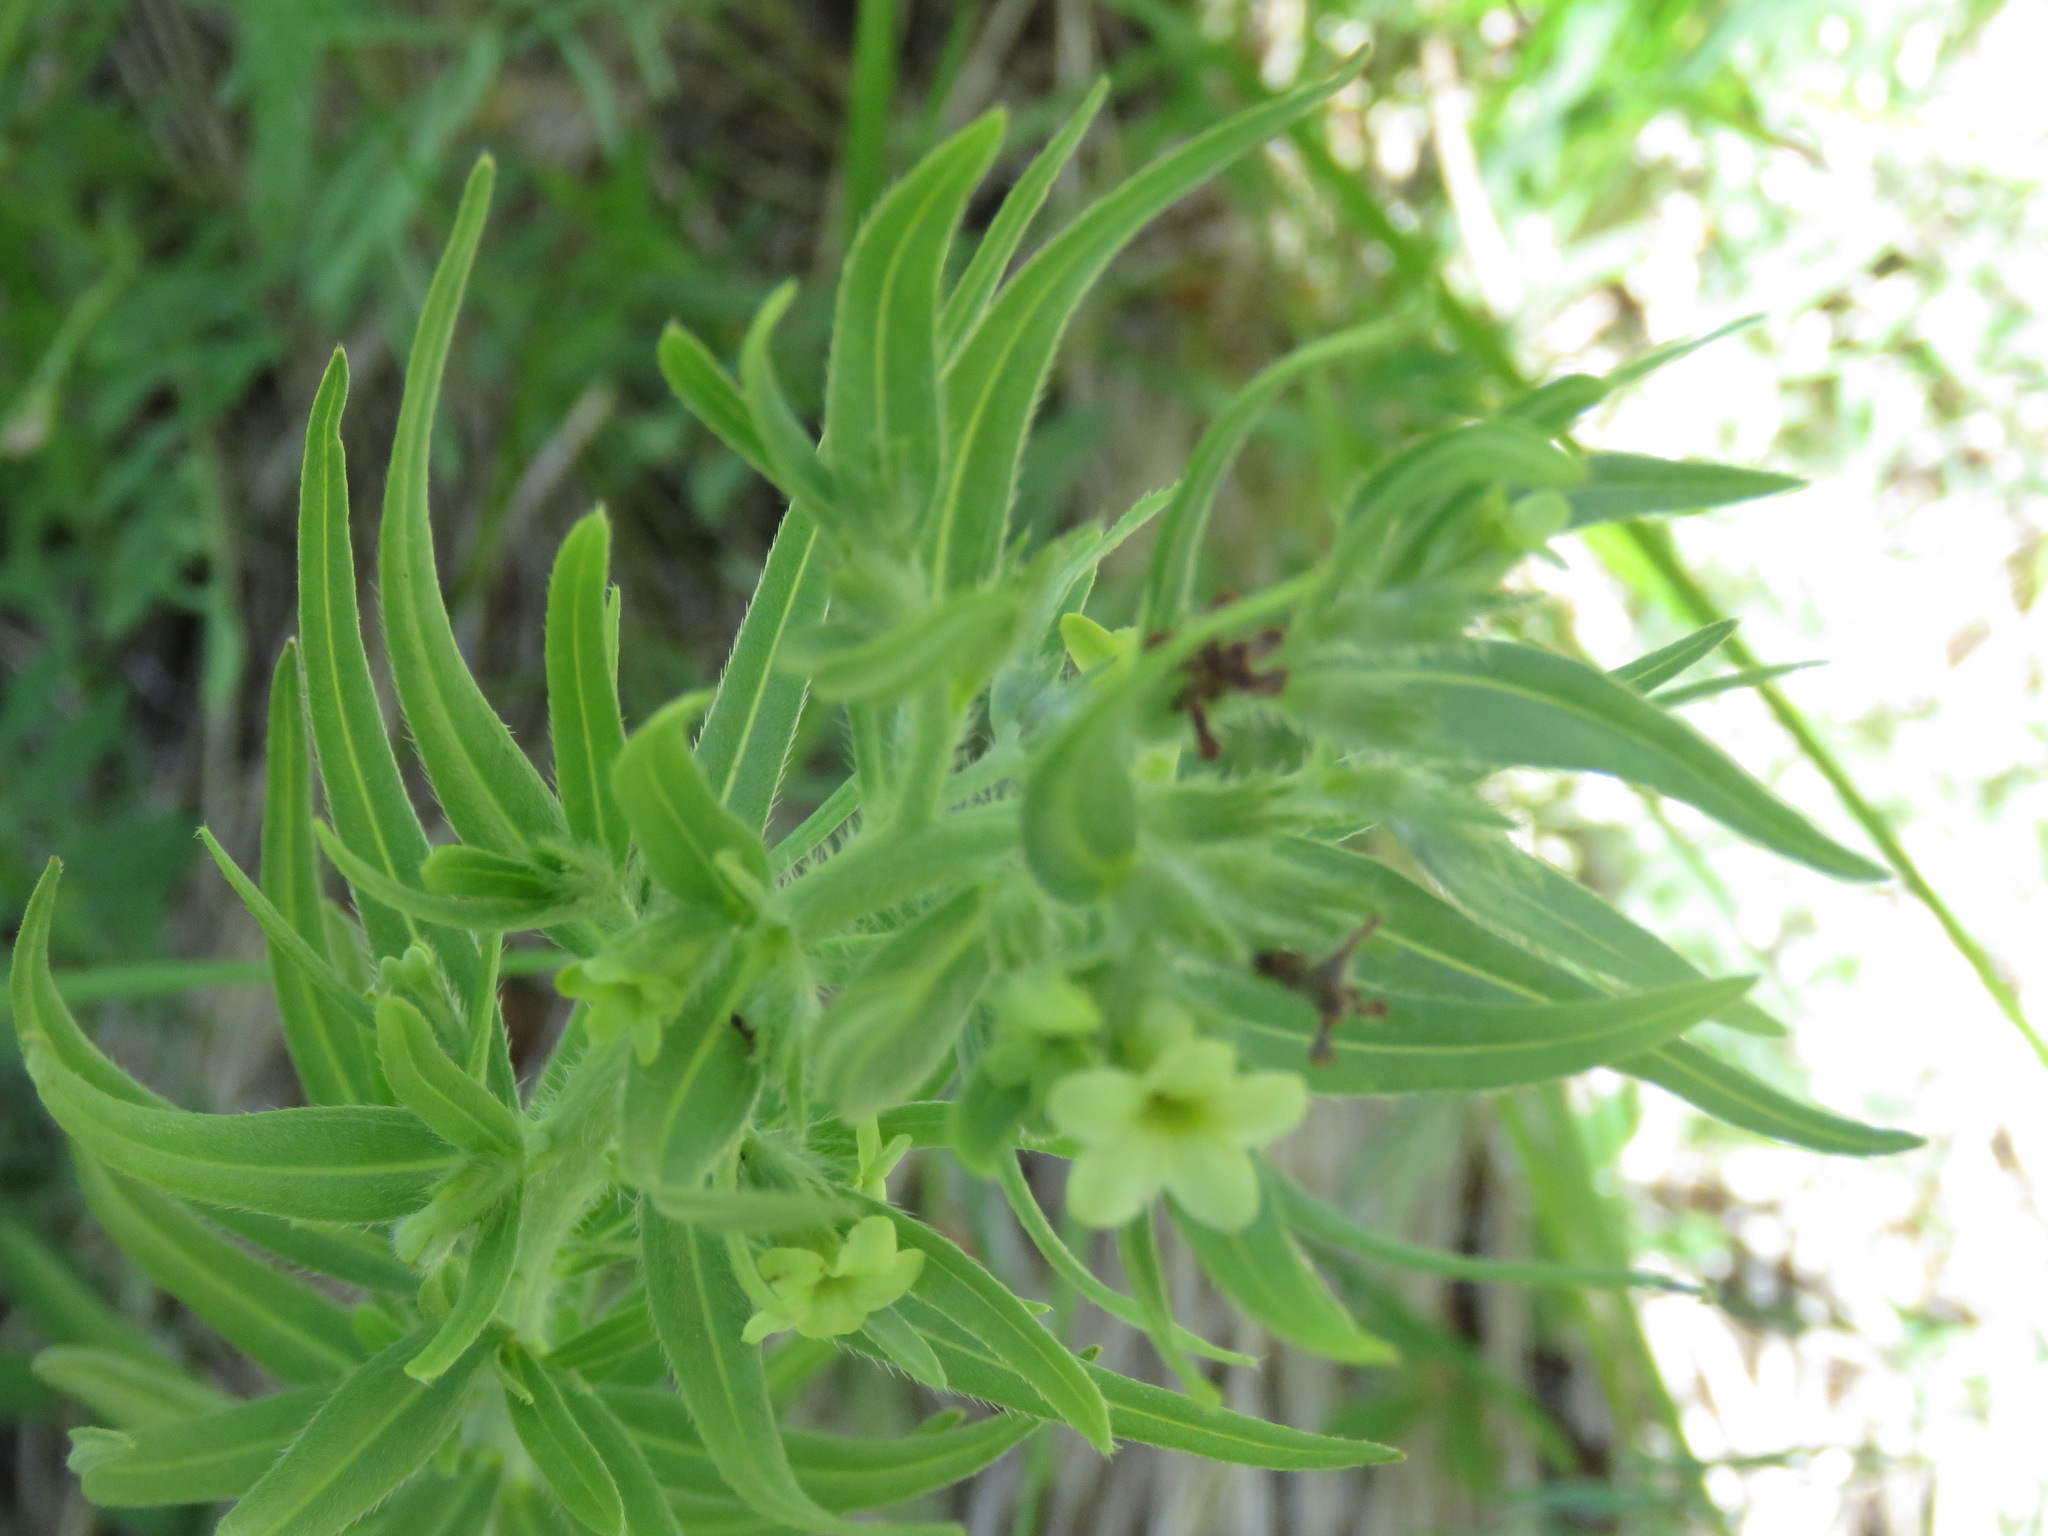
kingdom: Plantae
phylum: Tracheophyta
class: Magnoliopsida
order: Boraginales
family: Boraginaceae
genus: Lithospermum
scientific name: Lithospermum ruderale
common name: Western gromwell
